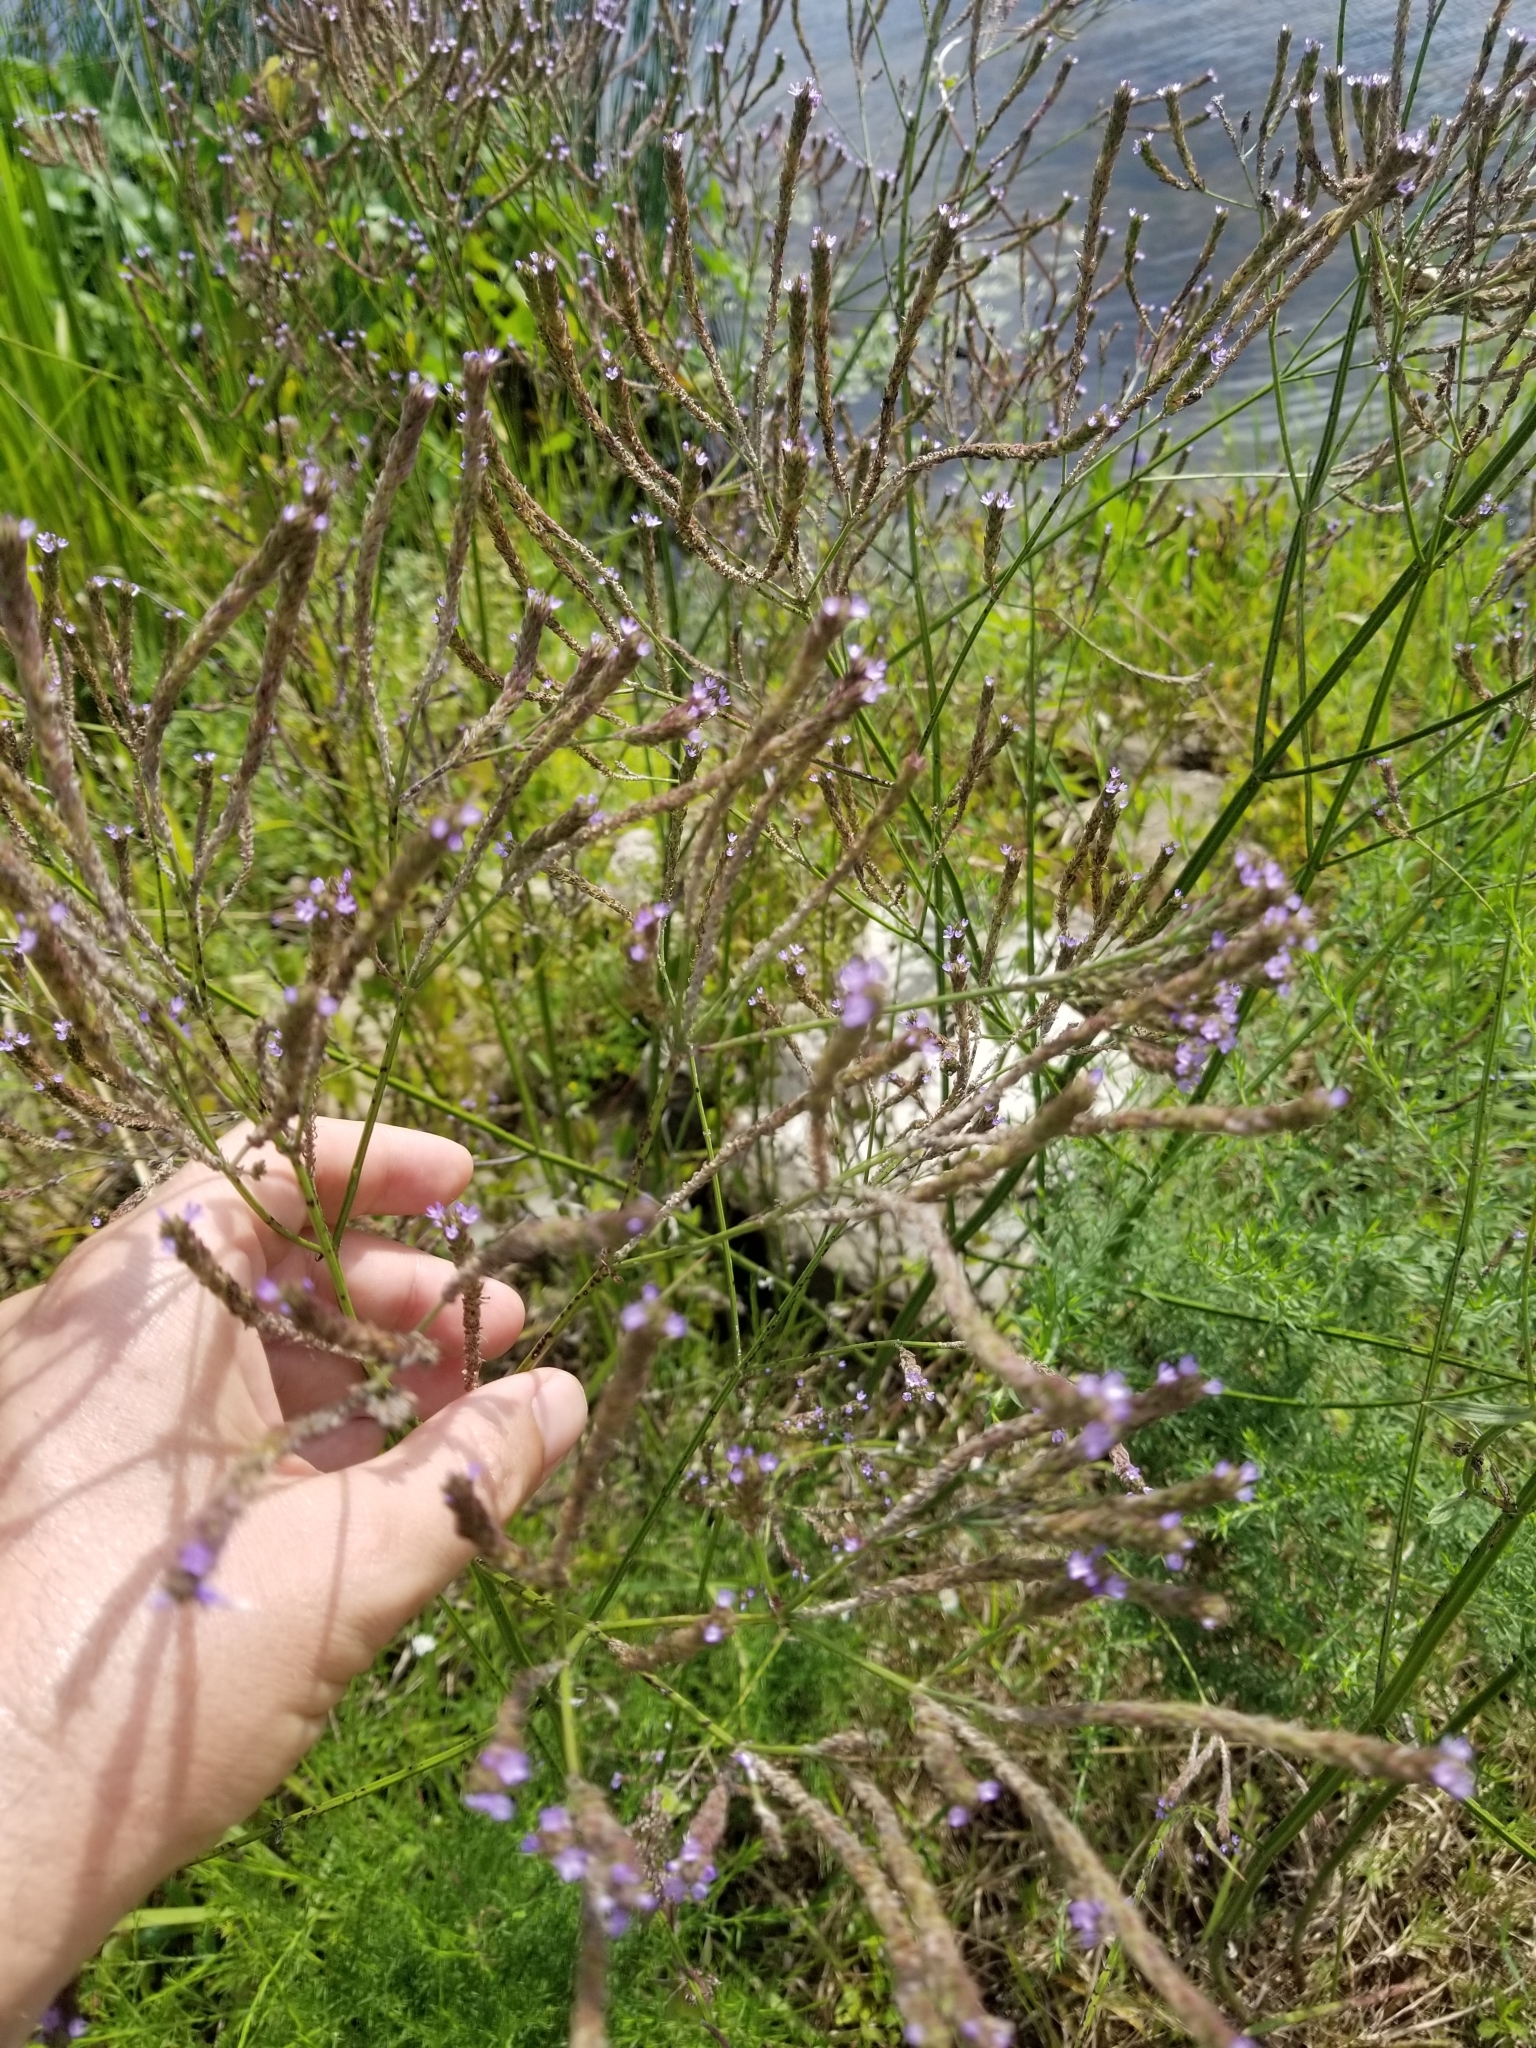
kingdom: Plantae
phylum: Tracheophyta
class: Magnoliopsida
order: Lamiales
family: Verbenaceae
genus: Verbena
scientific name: Verbena brasiliensis
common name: Brazilian vervain
